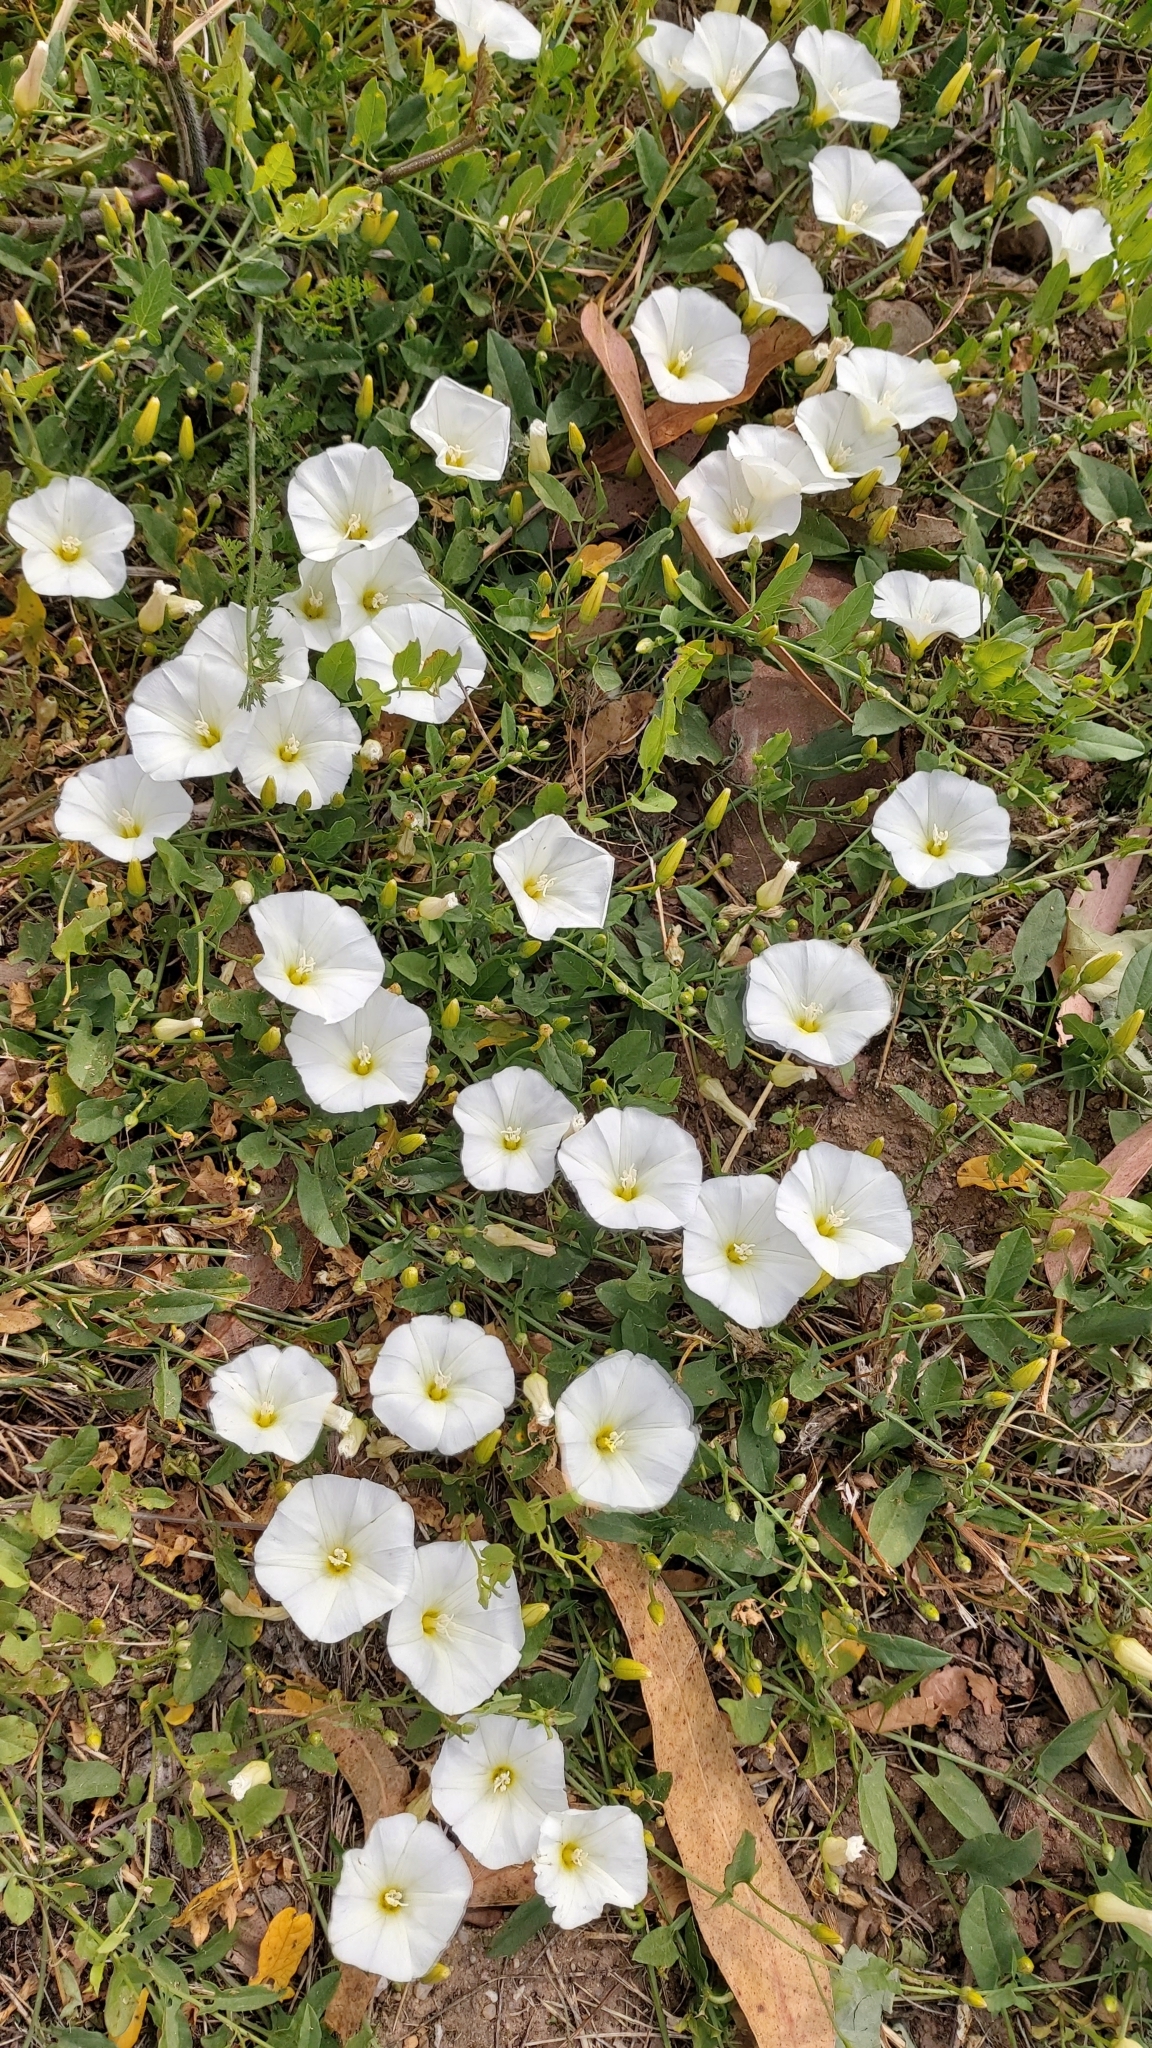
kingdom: Plantae
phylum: Tracheophyta
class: Magnoliopsida
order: Solanales
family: Convolvulaceae
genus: Convolvulus
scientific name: Convolvulus arvensis
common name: Field bindweed
